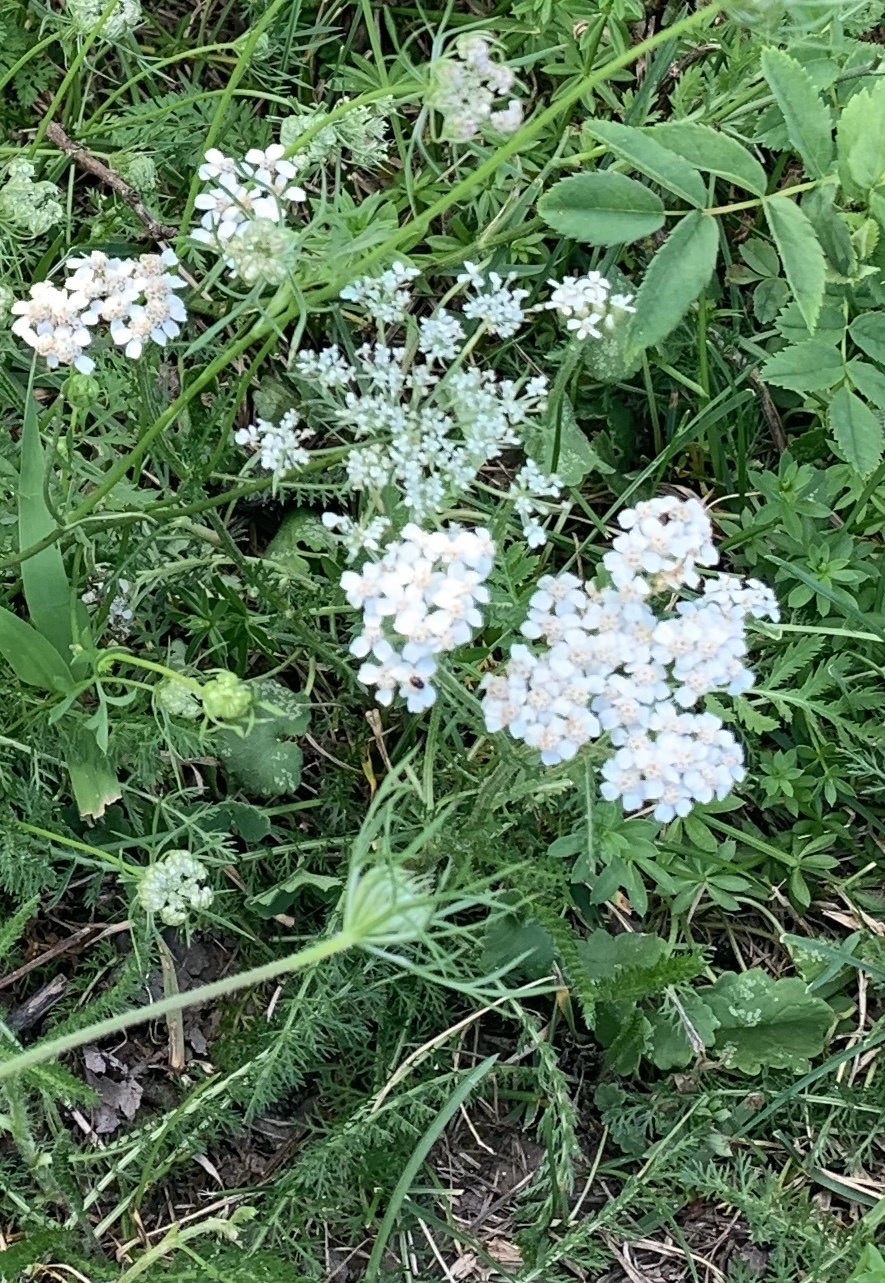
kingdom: Plantae
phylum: Tracheophyta
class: Magnoliopsida
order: Asterales
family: Asteraceae
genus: Achillea
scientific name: Achillea millefolium
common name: Yarrow
